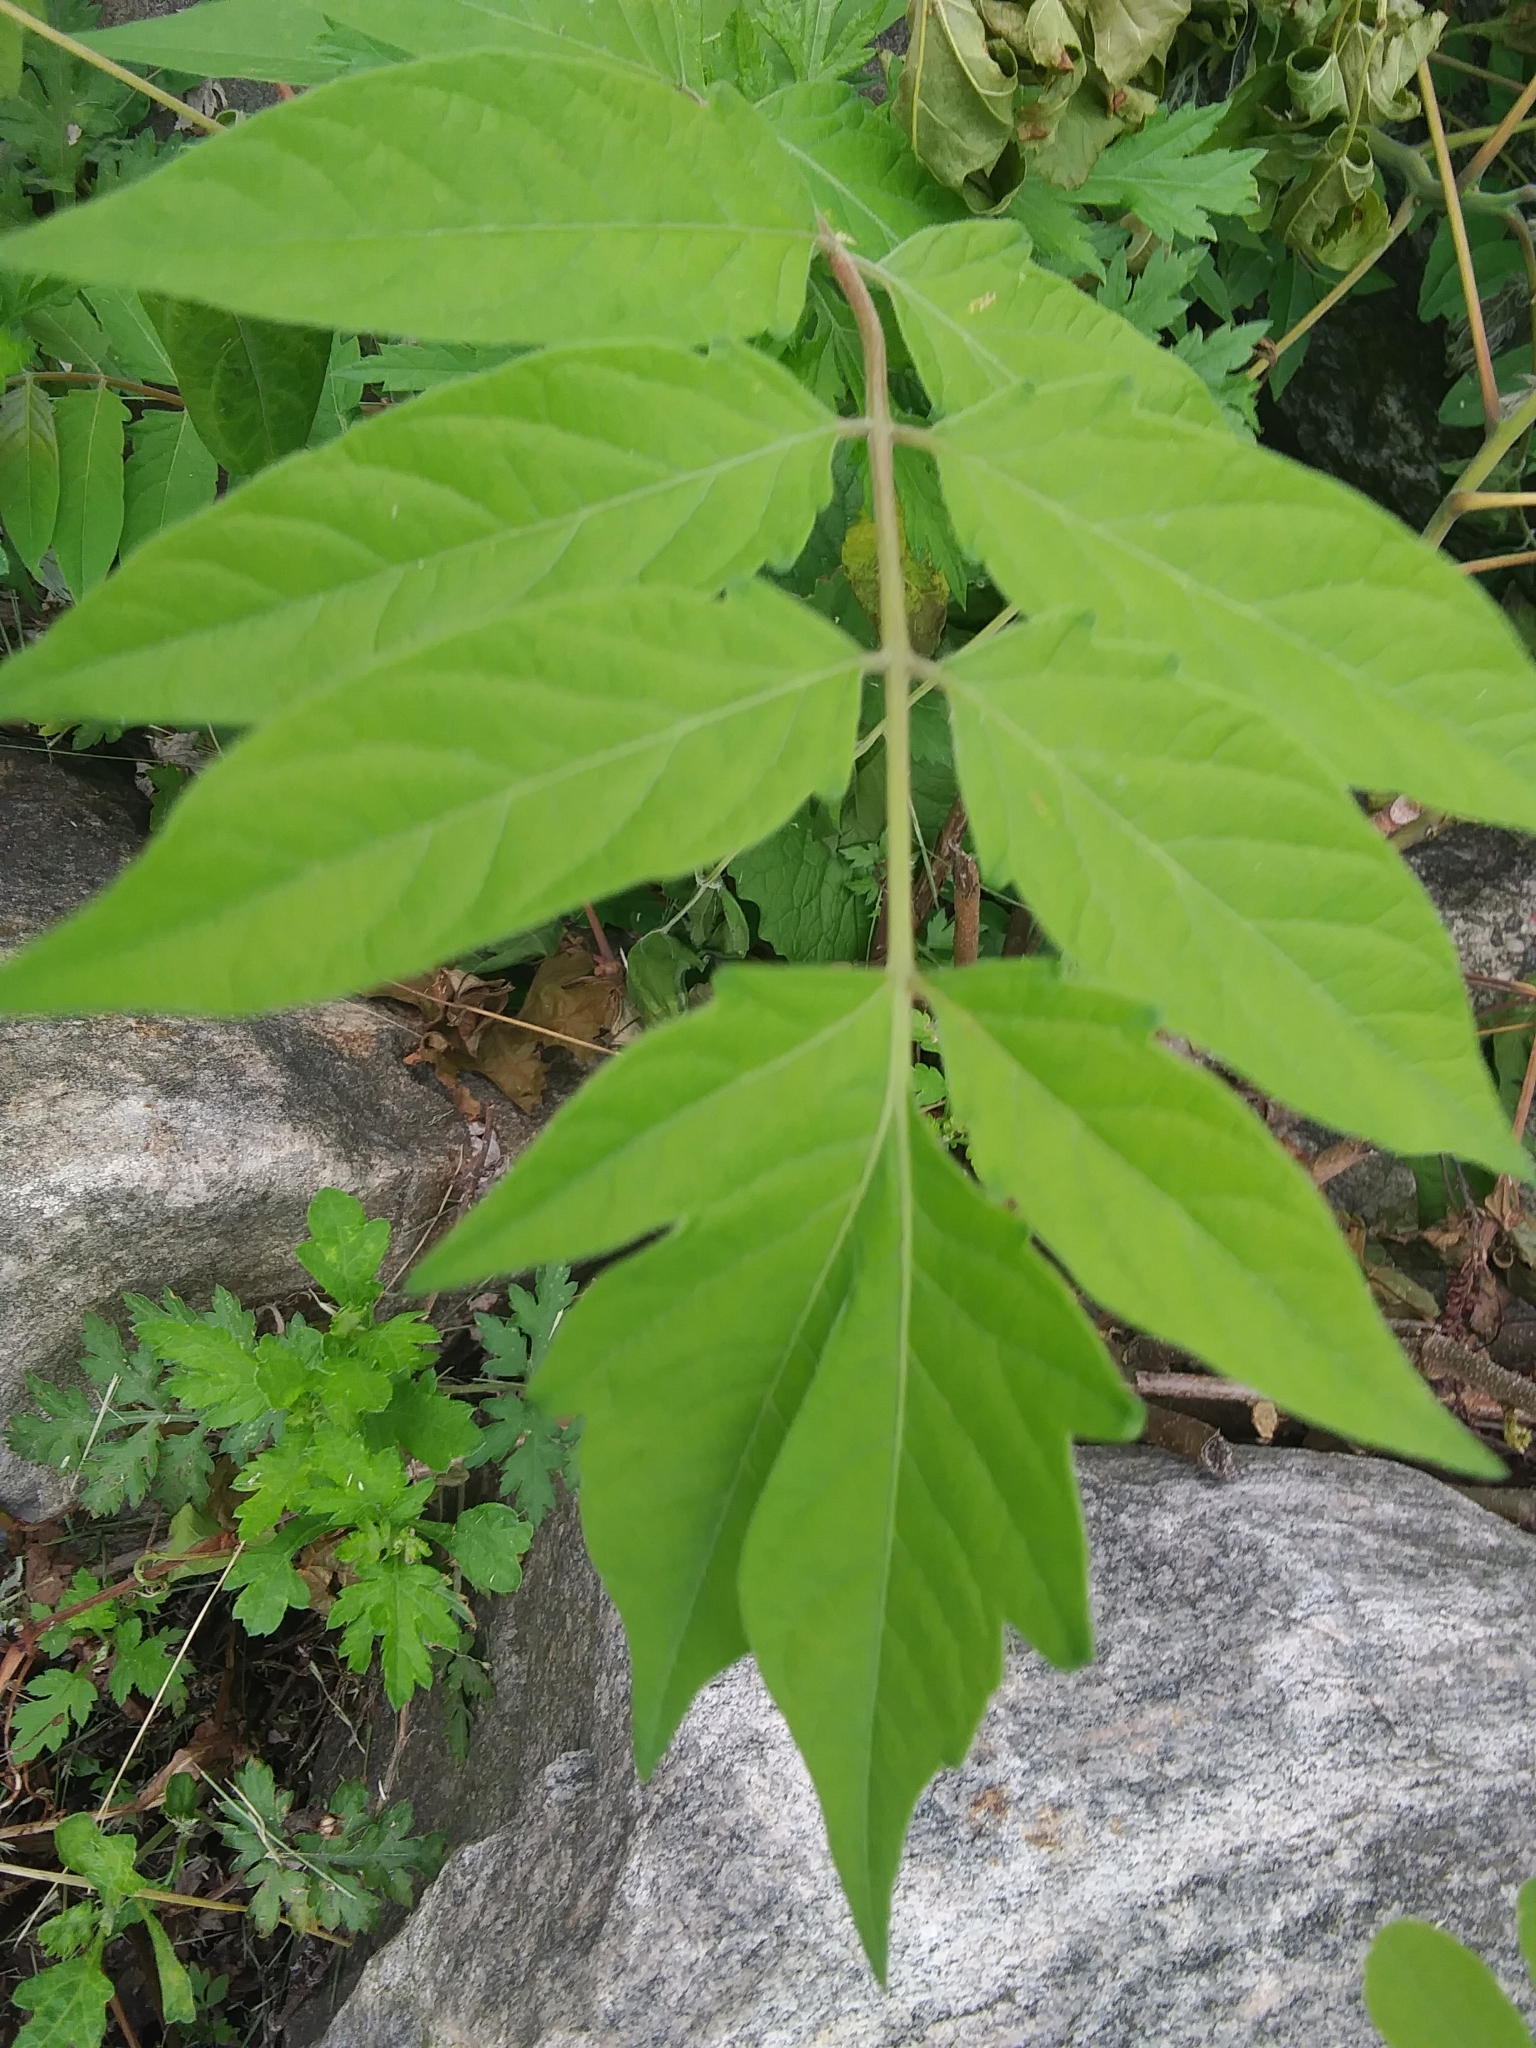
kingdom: Plantae
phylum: Tracheophyta
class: Magnoliopsida
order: Sapindales
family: Simaroubaceae
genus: Ailanthus
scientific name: Ailanthus altissima
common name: Tree-of-heaven
